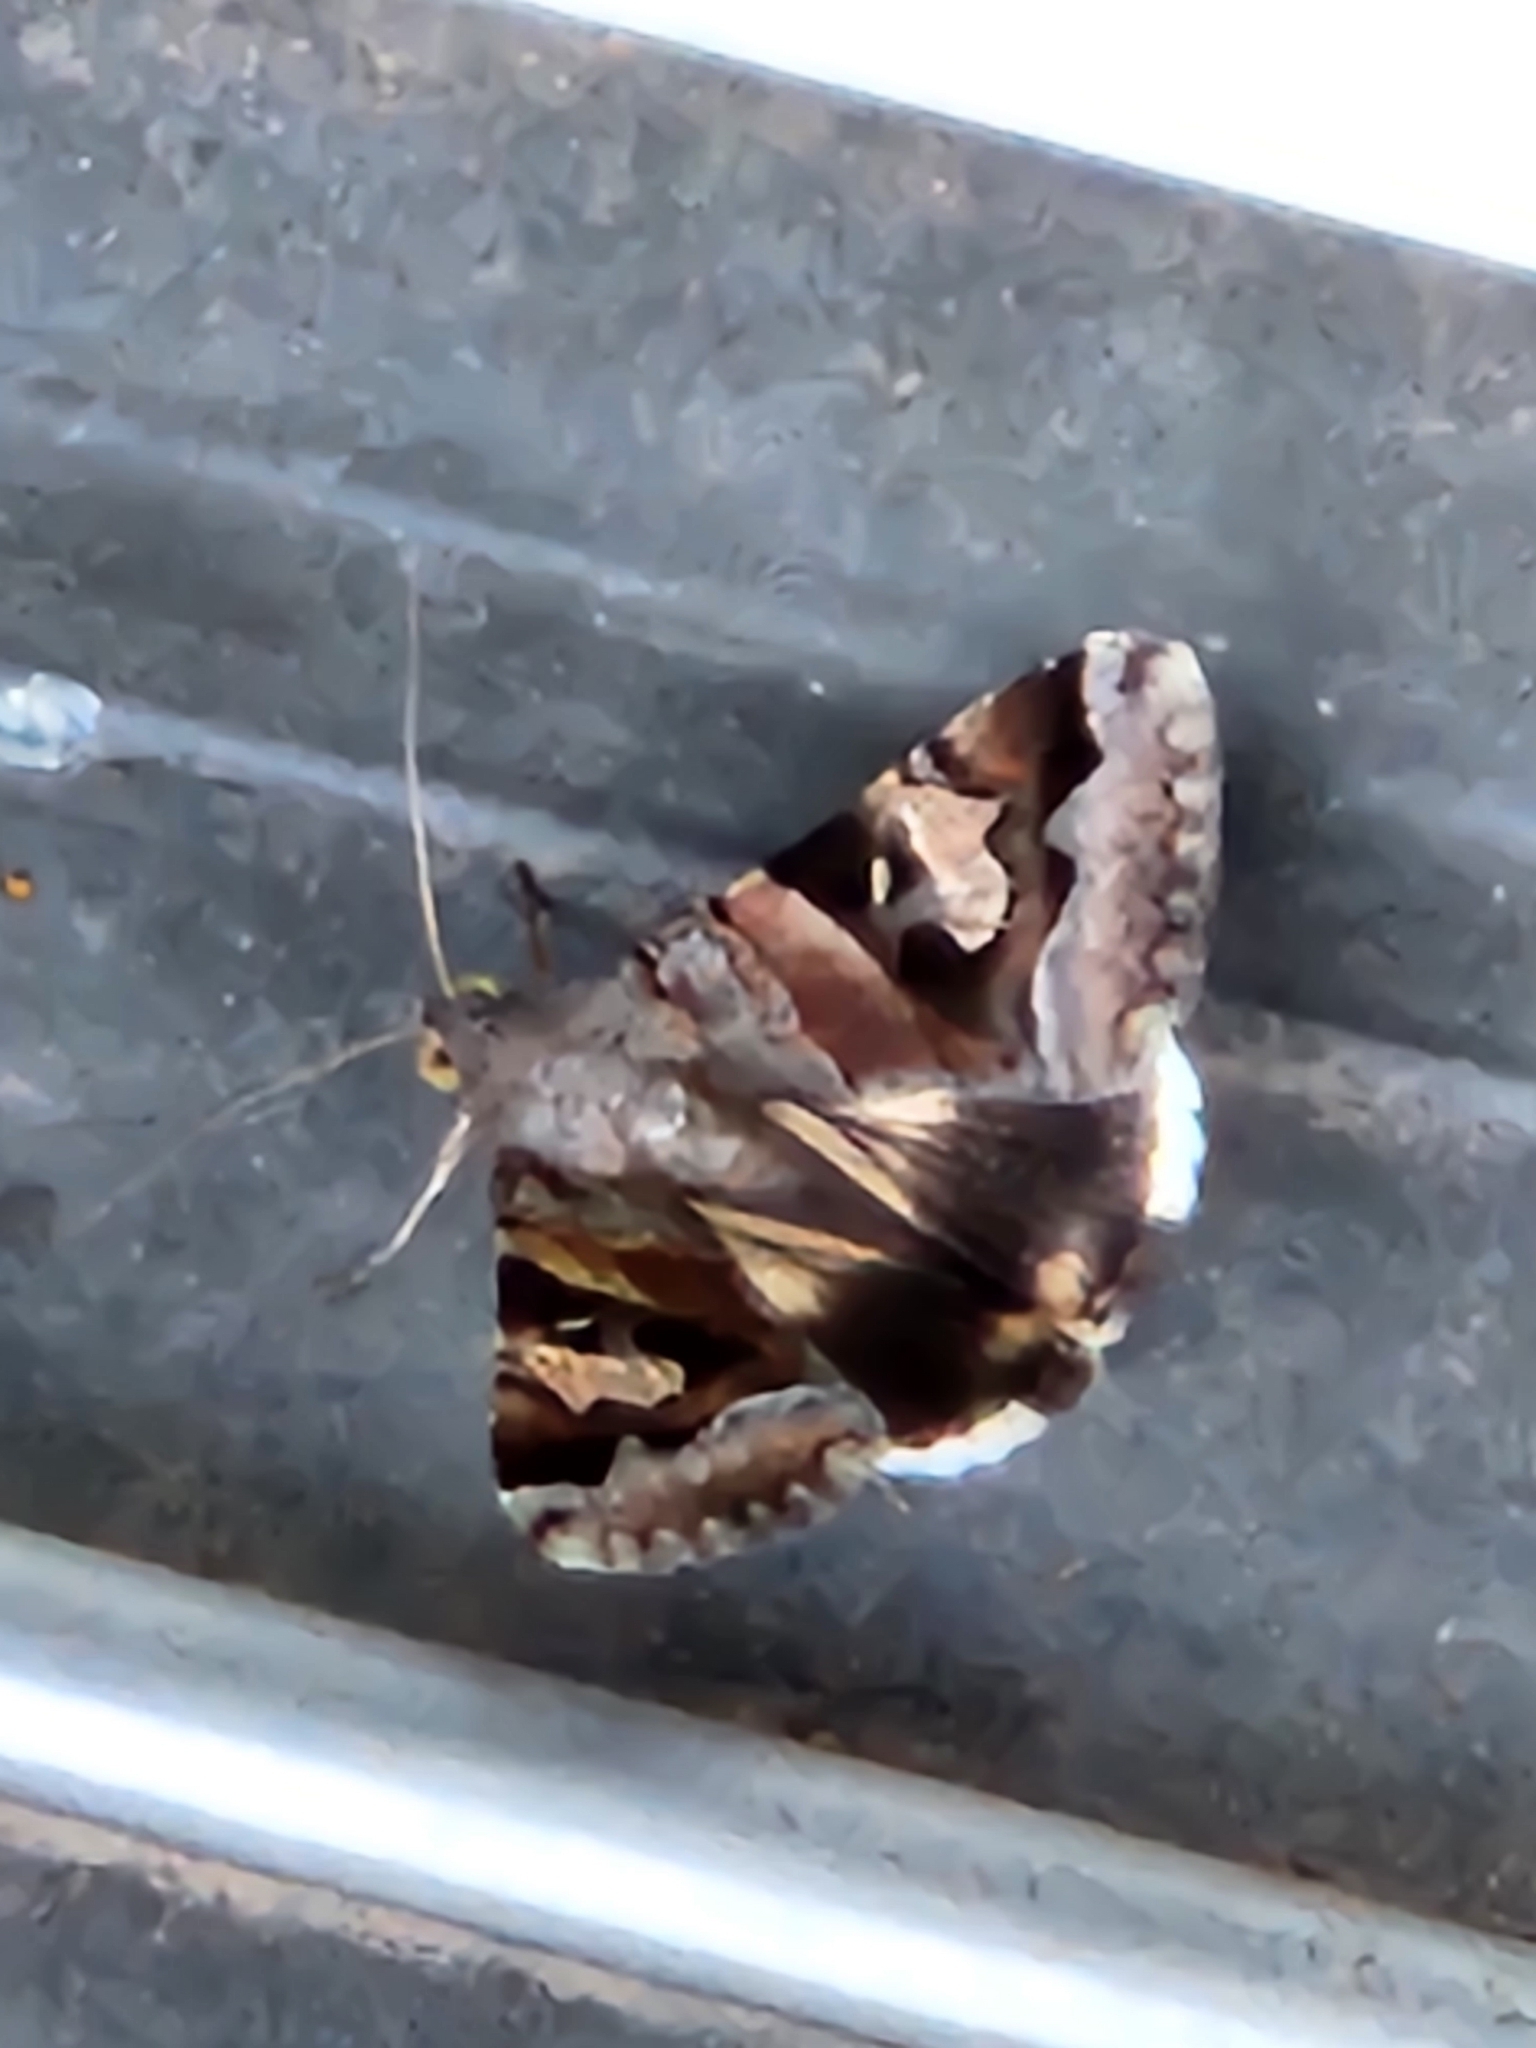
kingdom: Animalia
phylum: Arthropoda
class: Insecta
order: Lepidoptera
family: Erebidae
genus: Melipotis
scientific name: Melipotis indomita
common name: Moth
